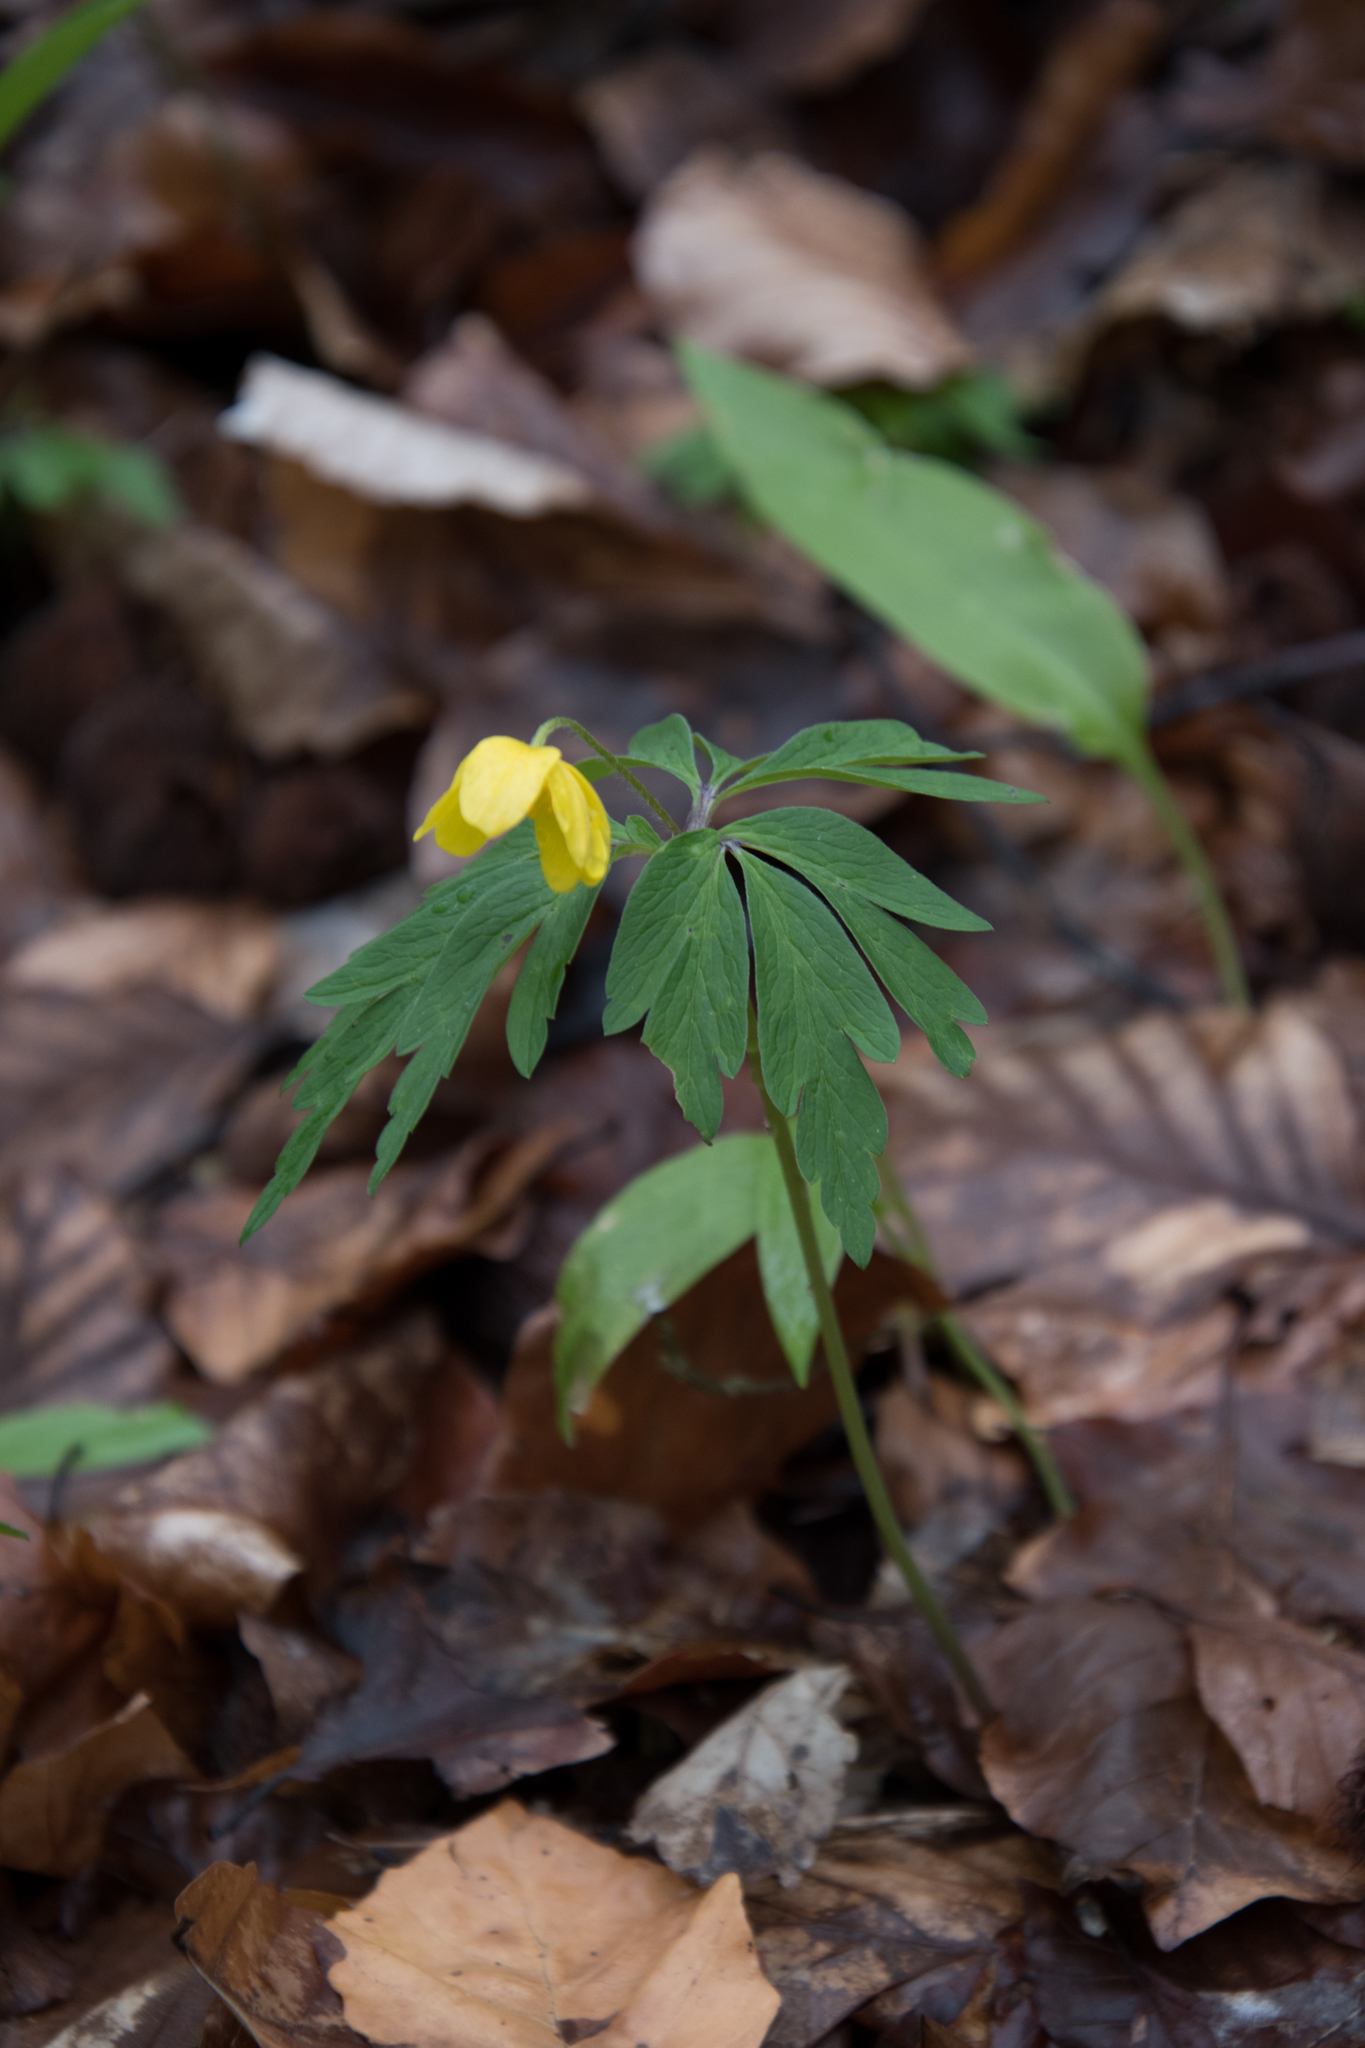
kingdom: Plantae
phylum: Tracheophyta
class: Magnoliopsida
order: Ranunculales
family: Ranunculaceae
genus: Anemone
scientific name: Anemone ranunculoides
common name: Yellow anemone
